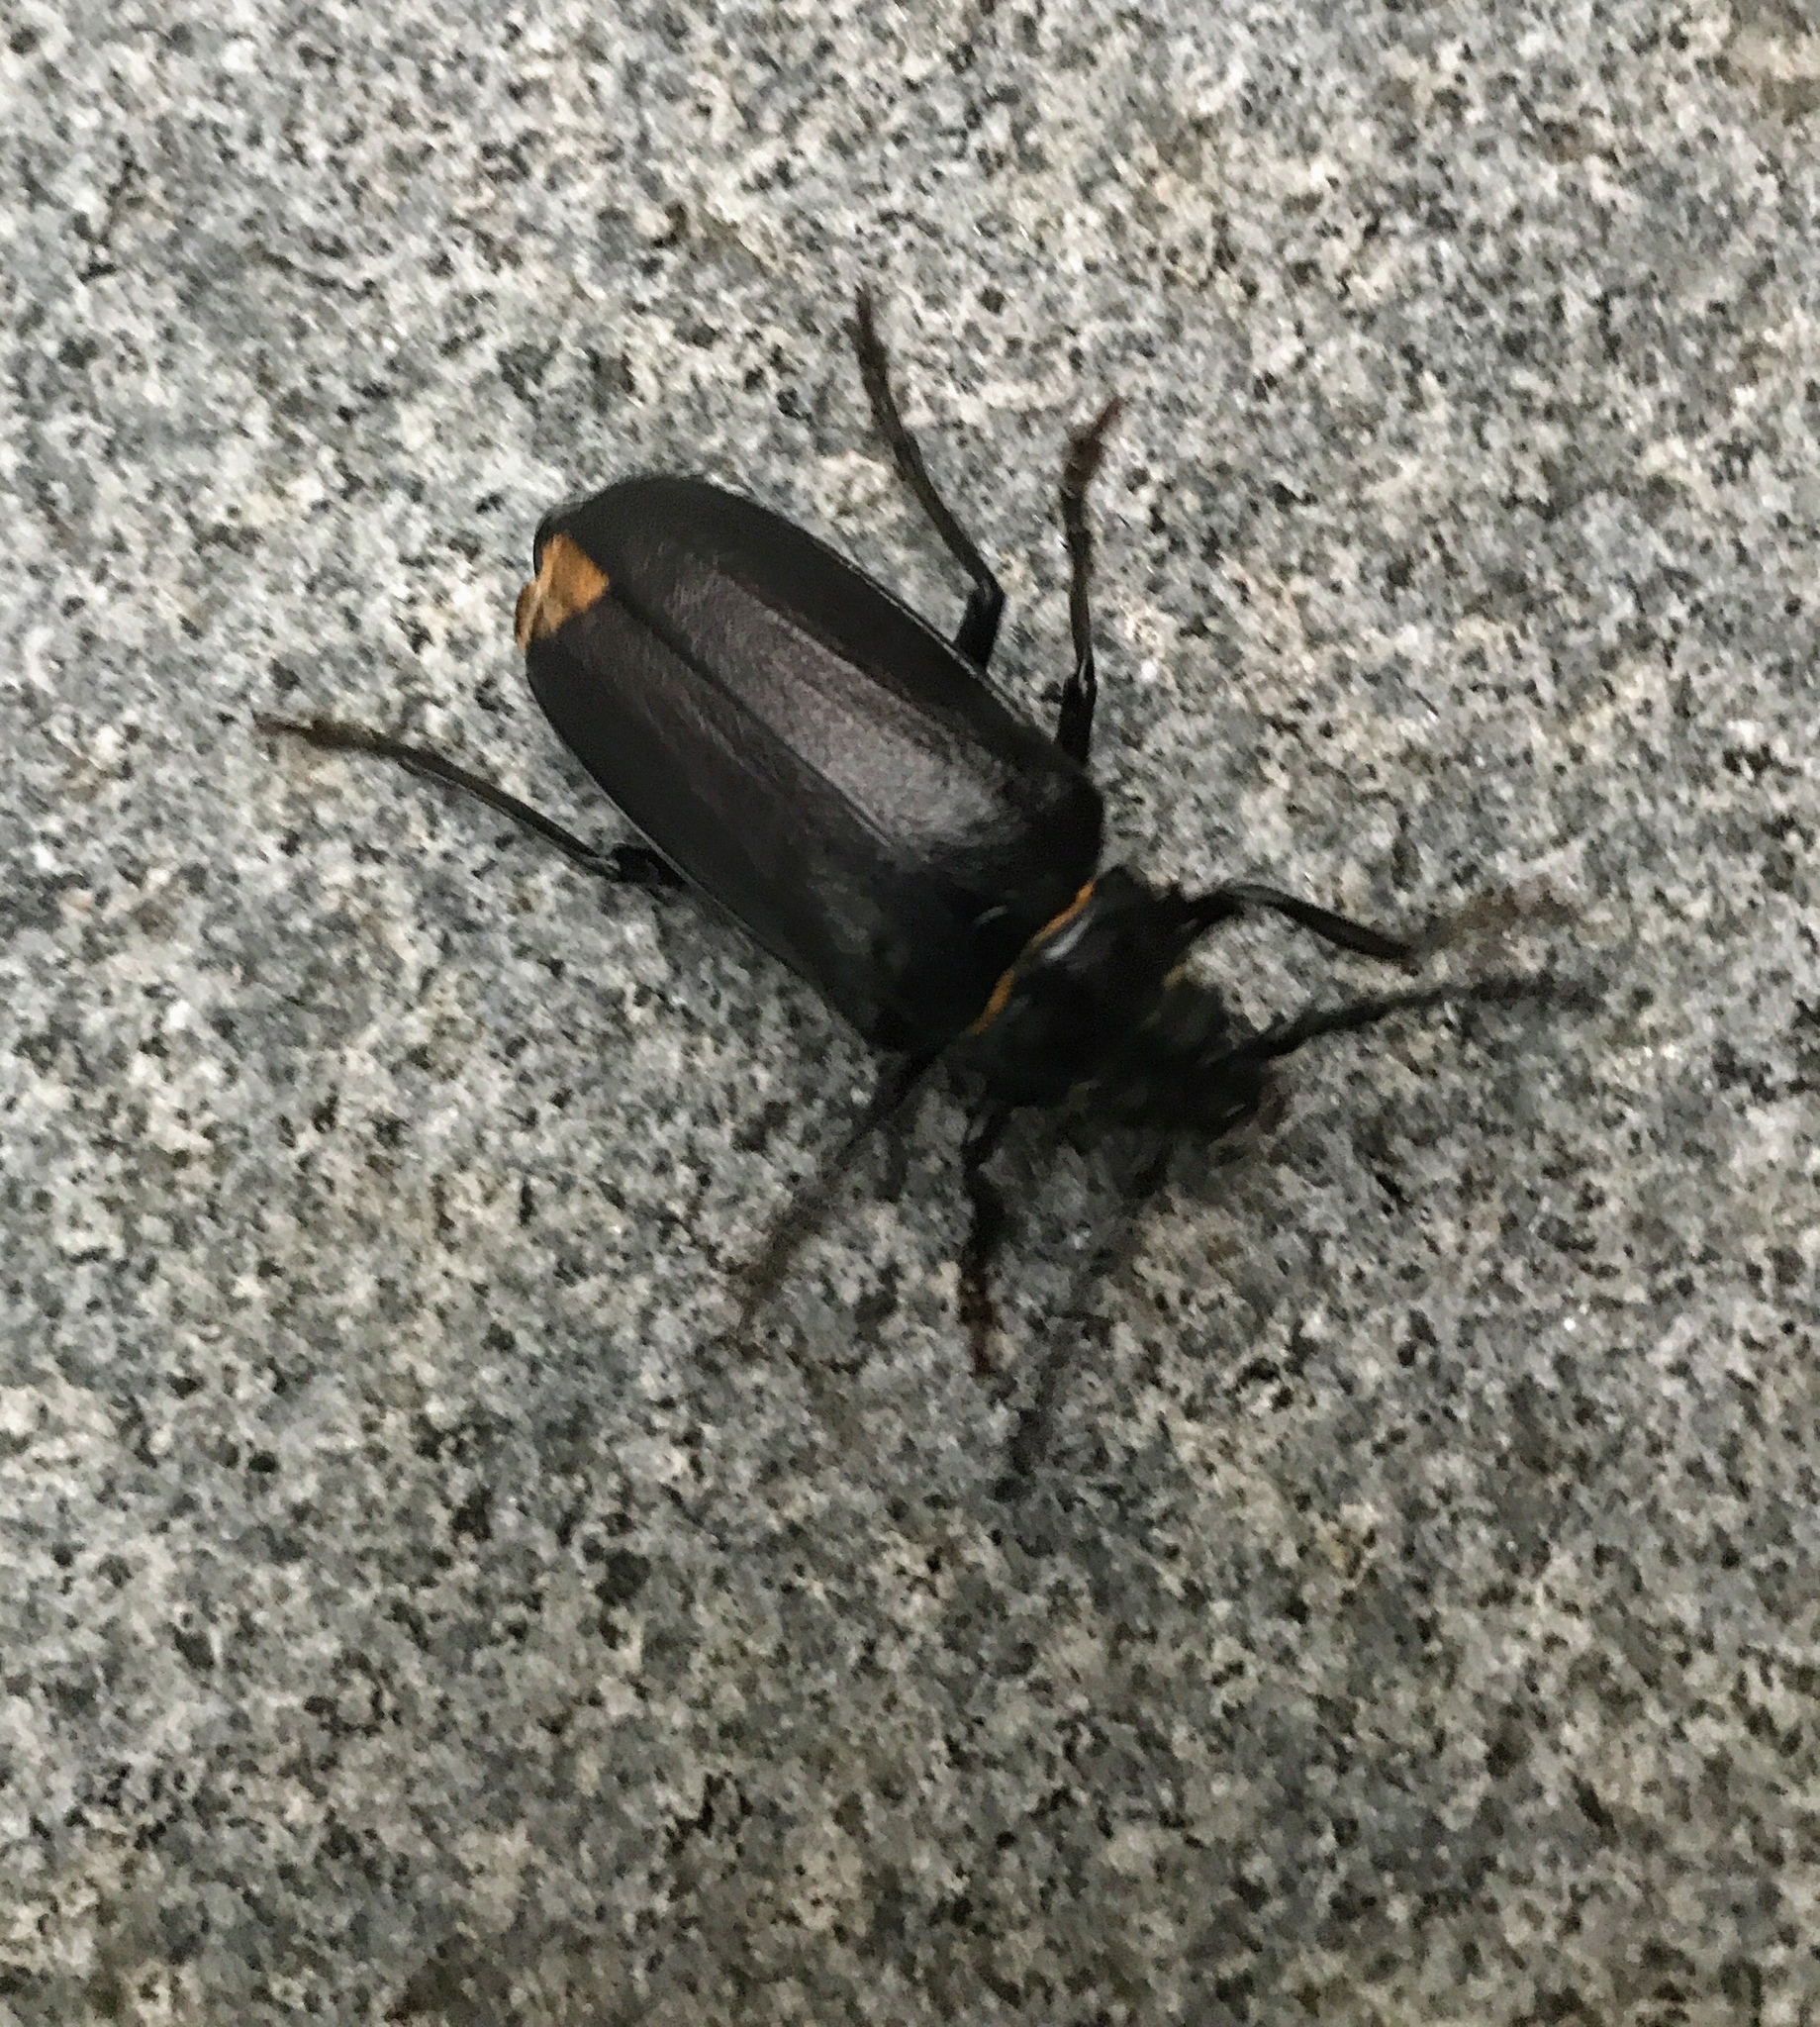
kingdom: Animalia
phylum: Arthropoda
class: Insecta
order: Coleoptera
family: Cerambycidae
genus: Prionus
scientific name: Prionus coriarius
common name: Tanner beetle
